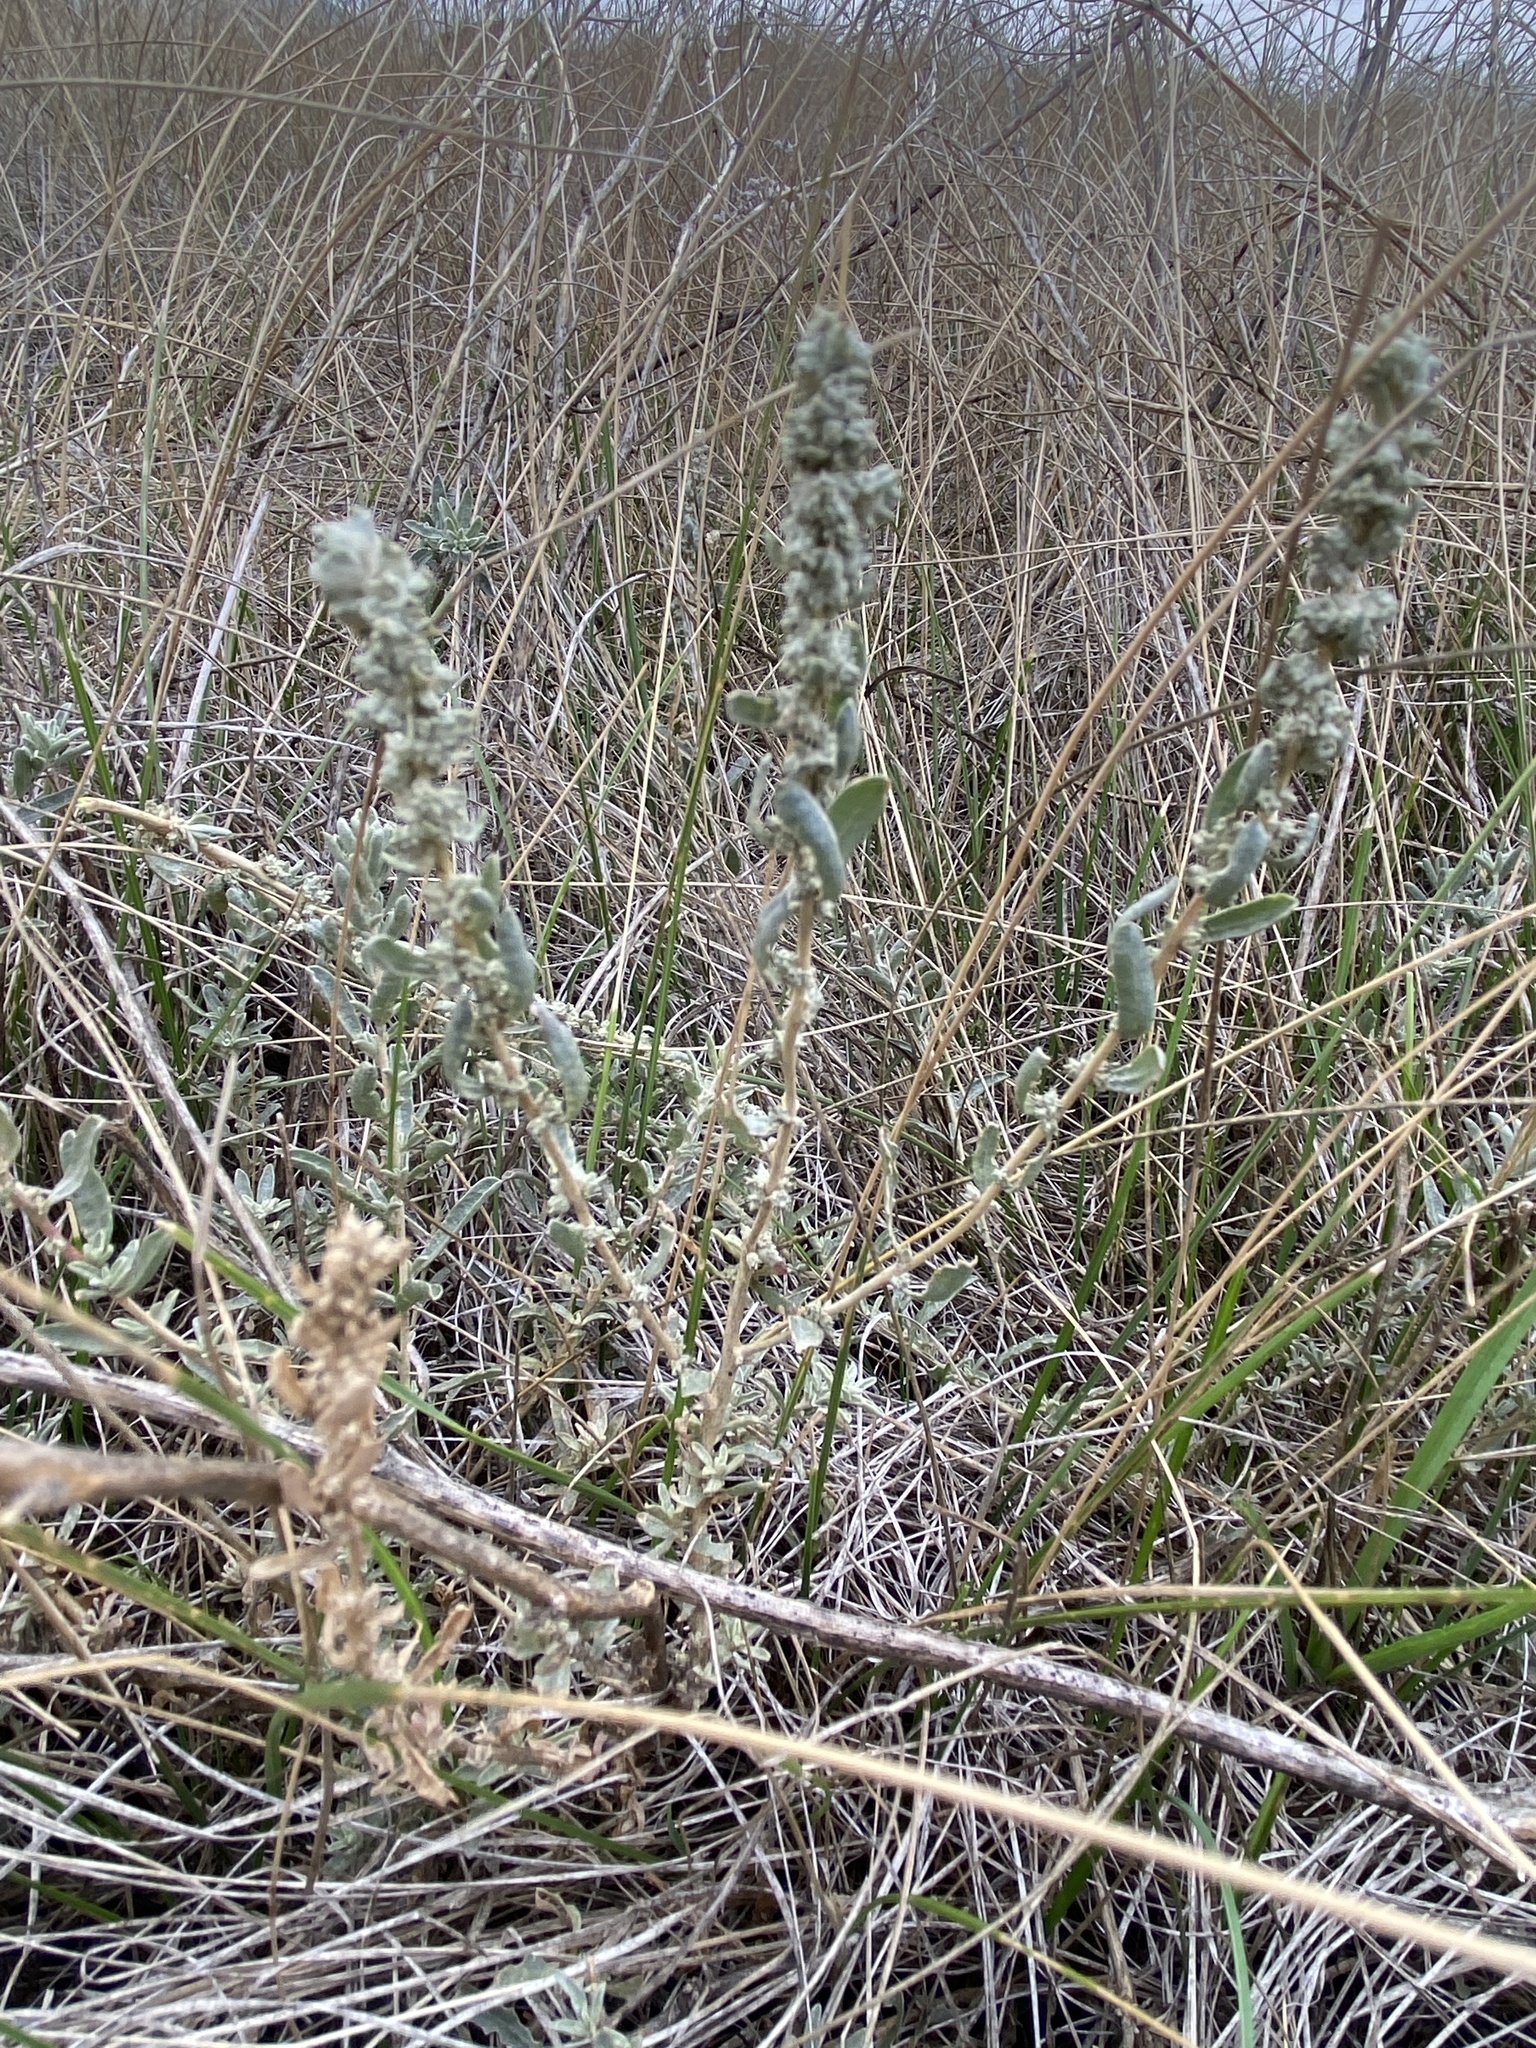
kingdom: Plantae
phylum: Tracheophyta
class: Magnoliopsida
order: Caryophyllales
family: Amaranthaceae
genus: Atriplex
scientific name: Atriplex gardneri
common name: Gardner's orache
